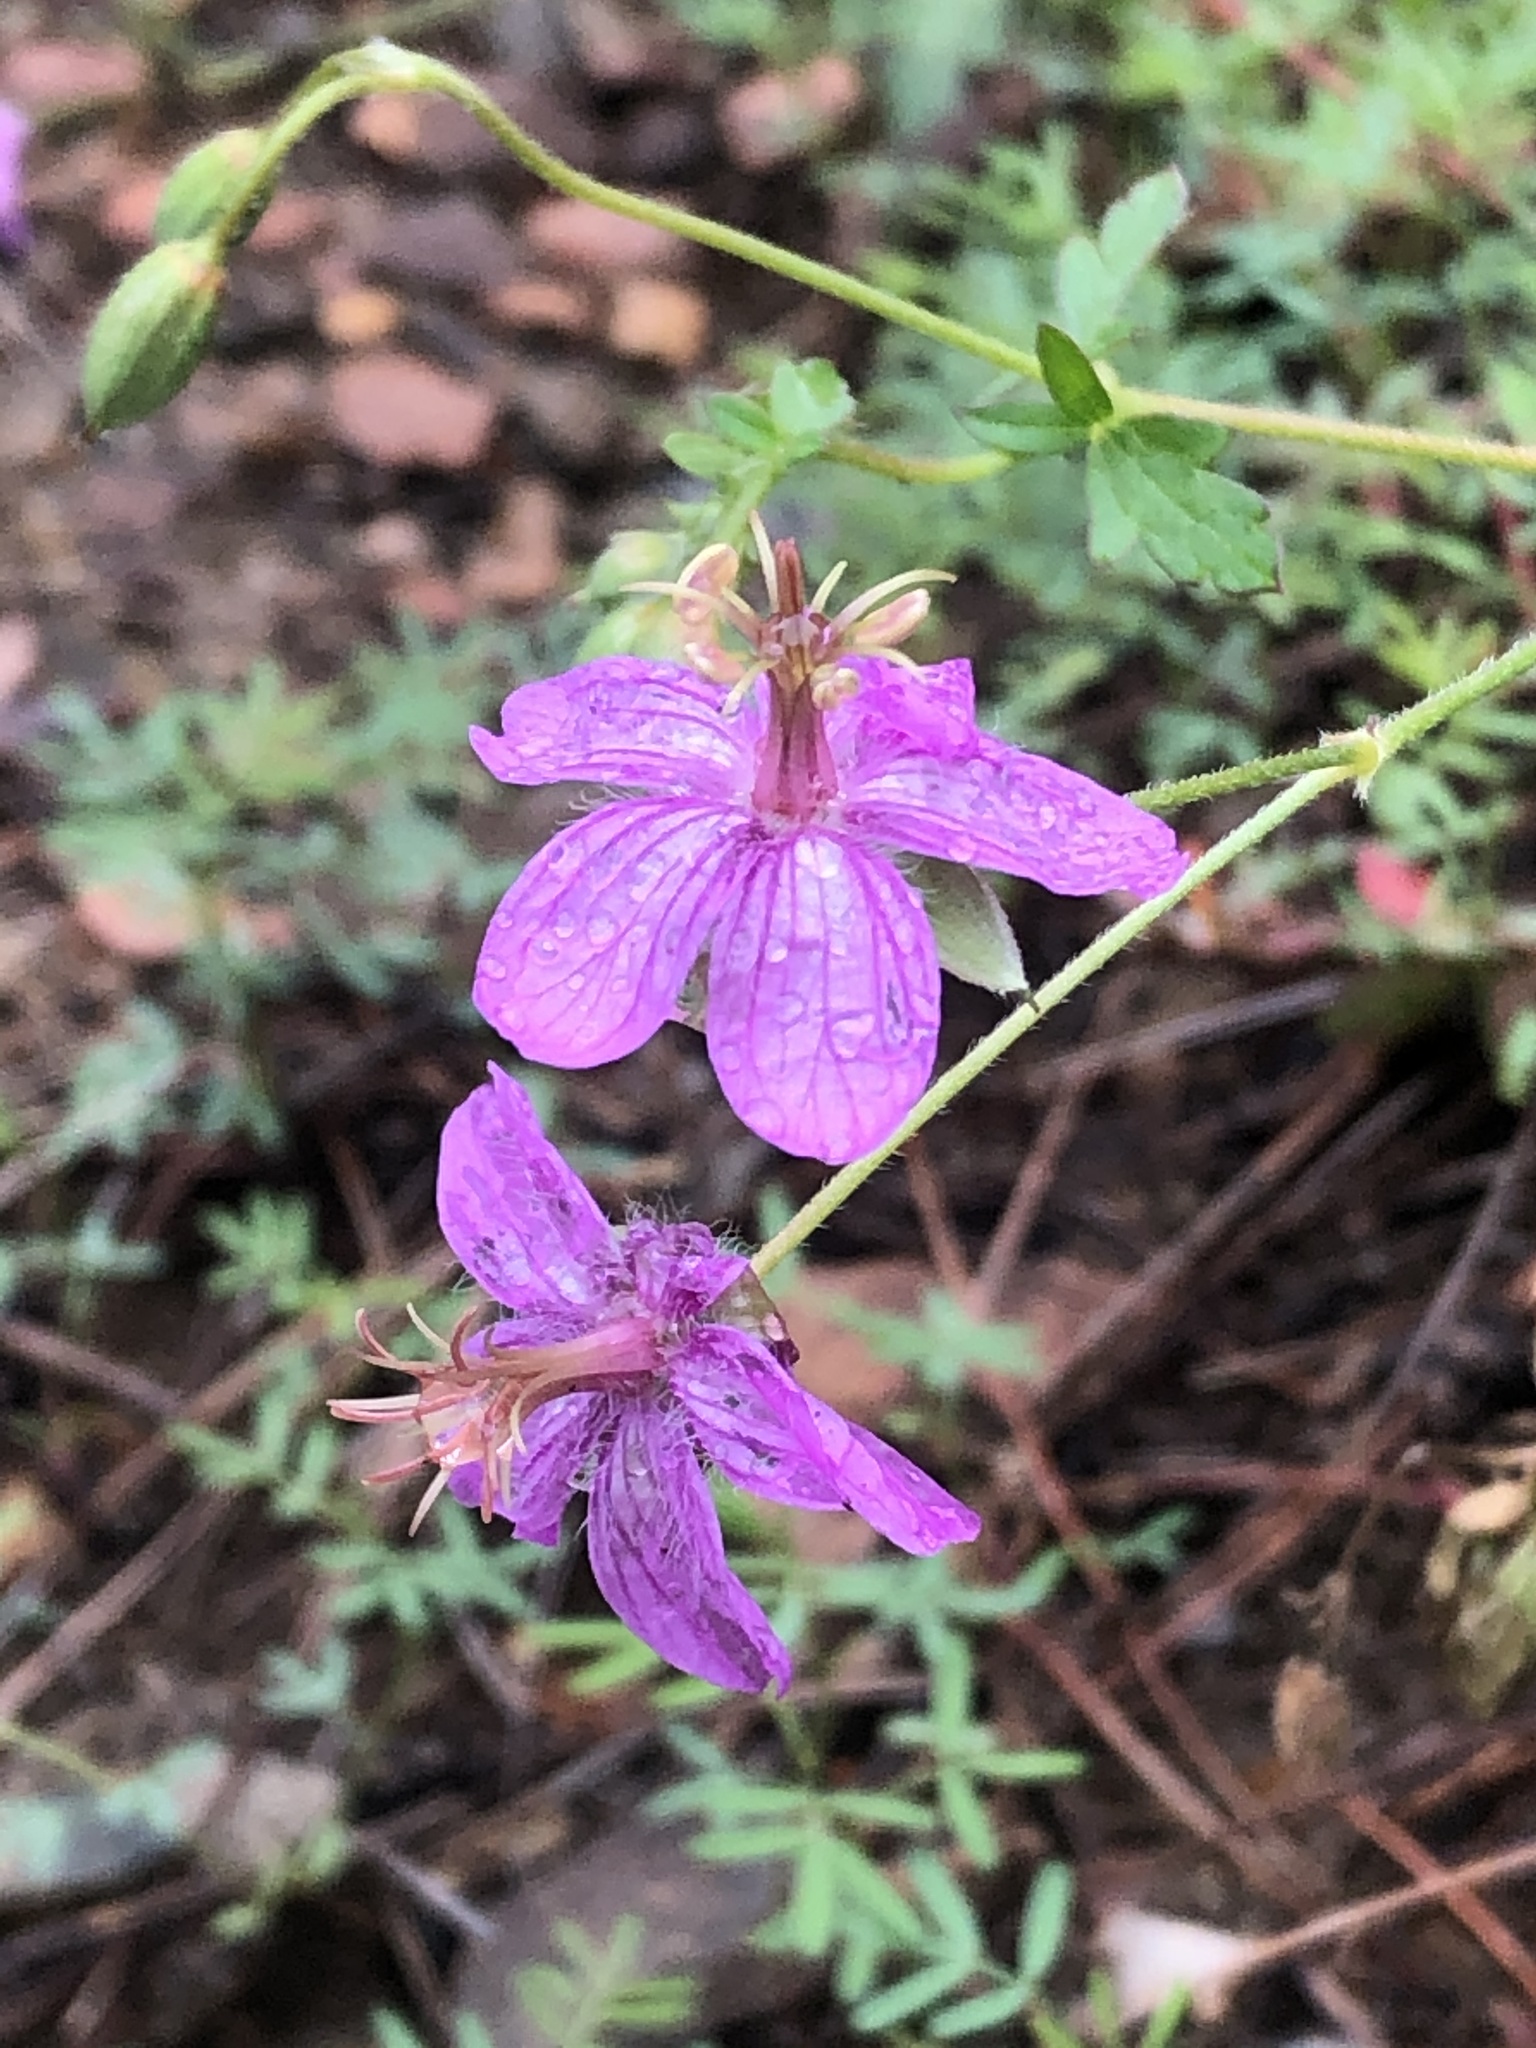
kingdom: Plantae
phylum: Tracheophyta
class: Magnoliopsida
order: Geraniales
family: Geraniaceae
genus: Geranium
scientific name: Geranium caespitosum
